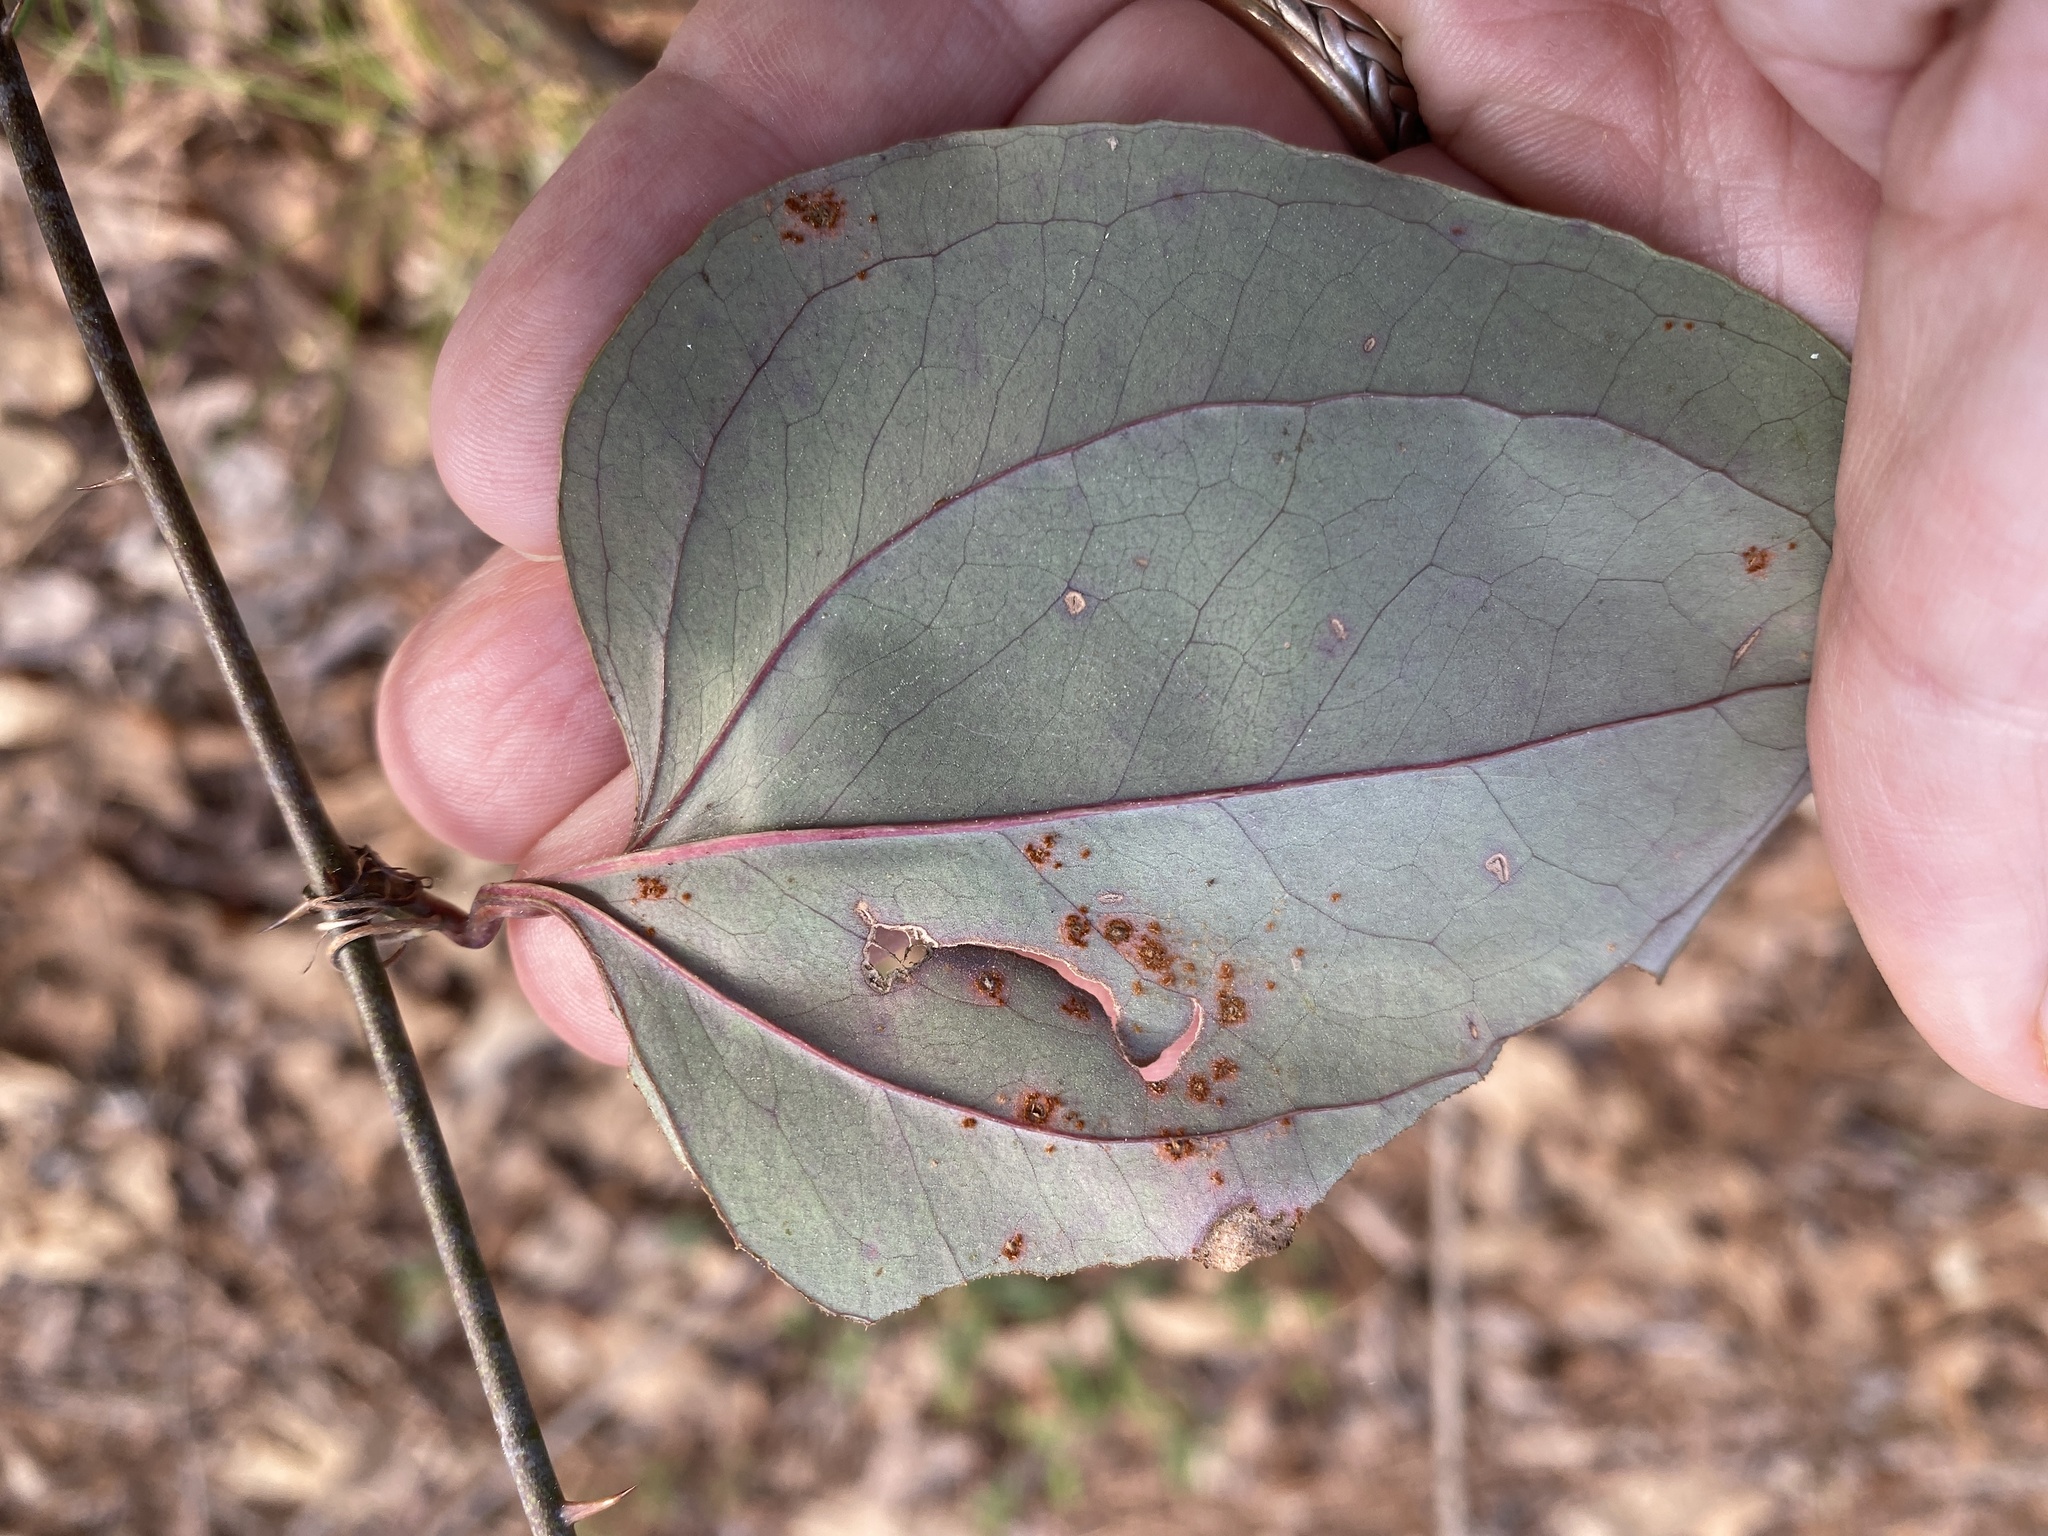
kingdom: Plantae
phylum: Tracheophyta
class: Liliopsida
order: Liliales
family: Smilacaceae
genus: Smilax
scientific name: Smilax glauca
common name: Cat greenbrier
